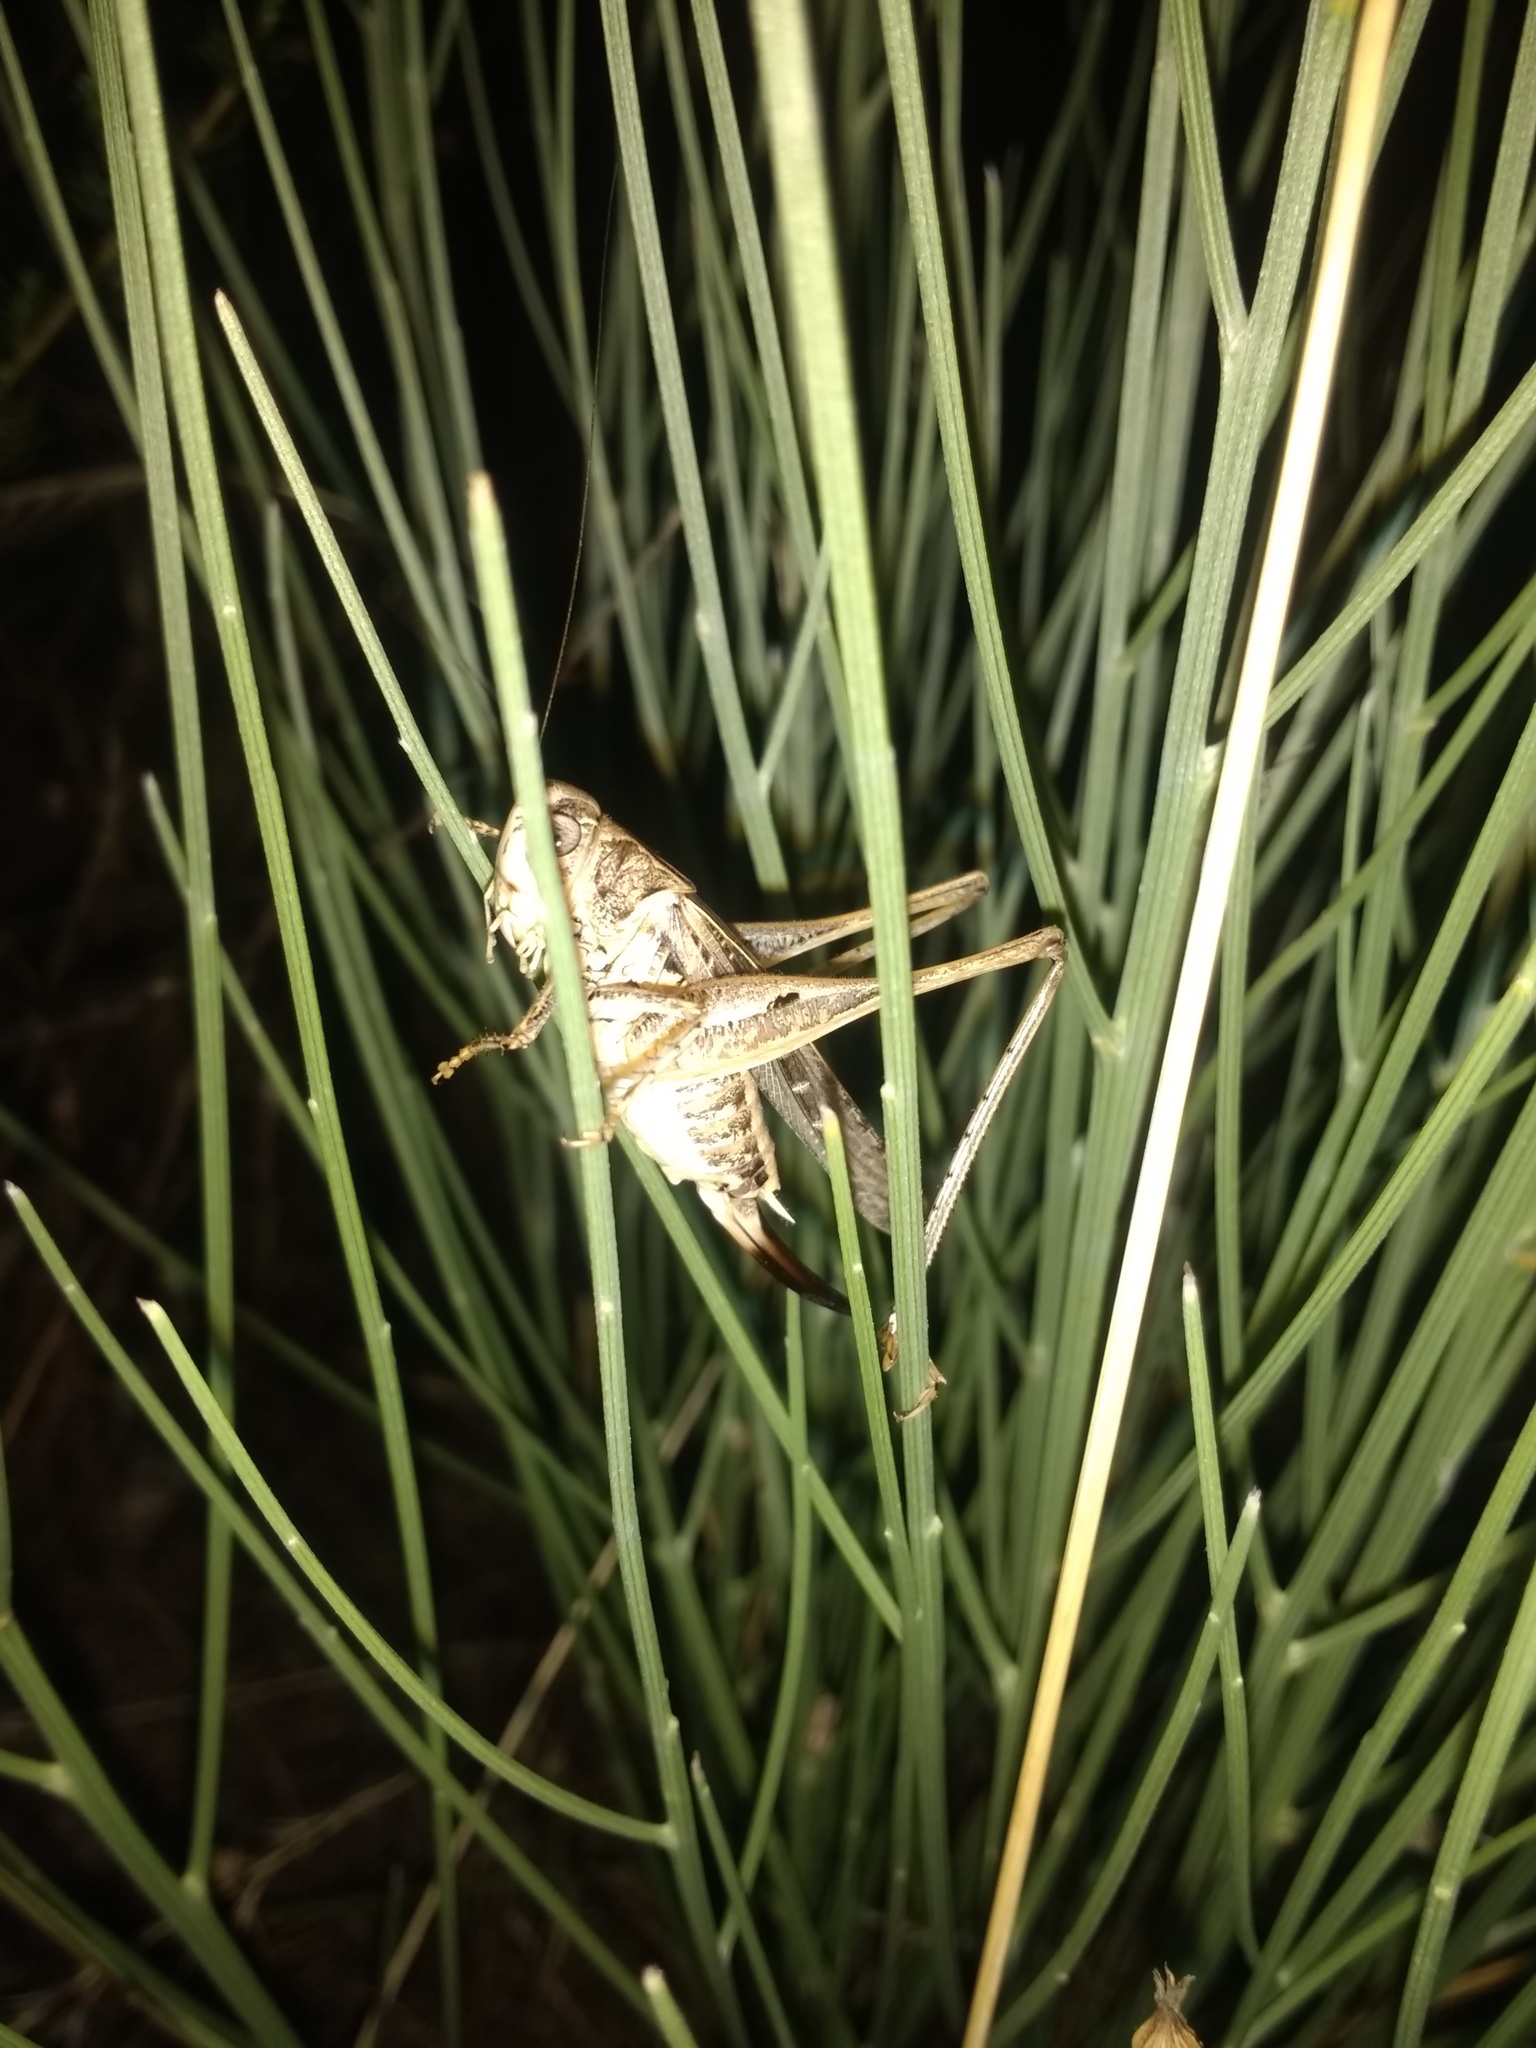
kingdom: Animalia
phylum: Arthropoda
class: Insecta
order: Orthoptera
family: Tettigoniidae
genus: Platycleis
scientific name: Platycleis affinis
